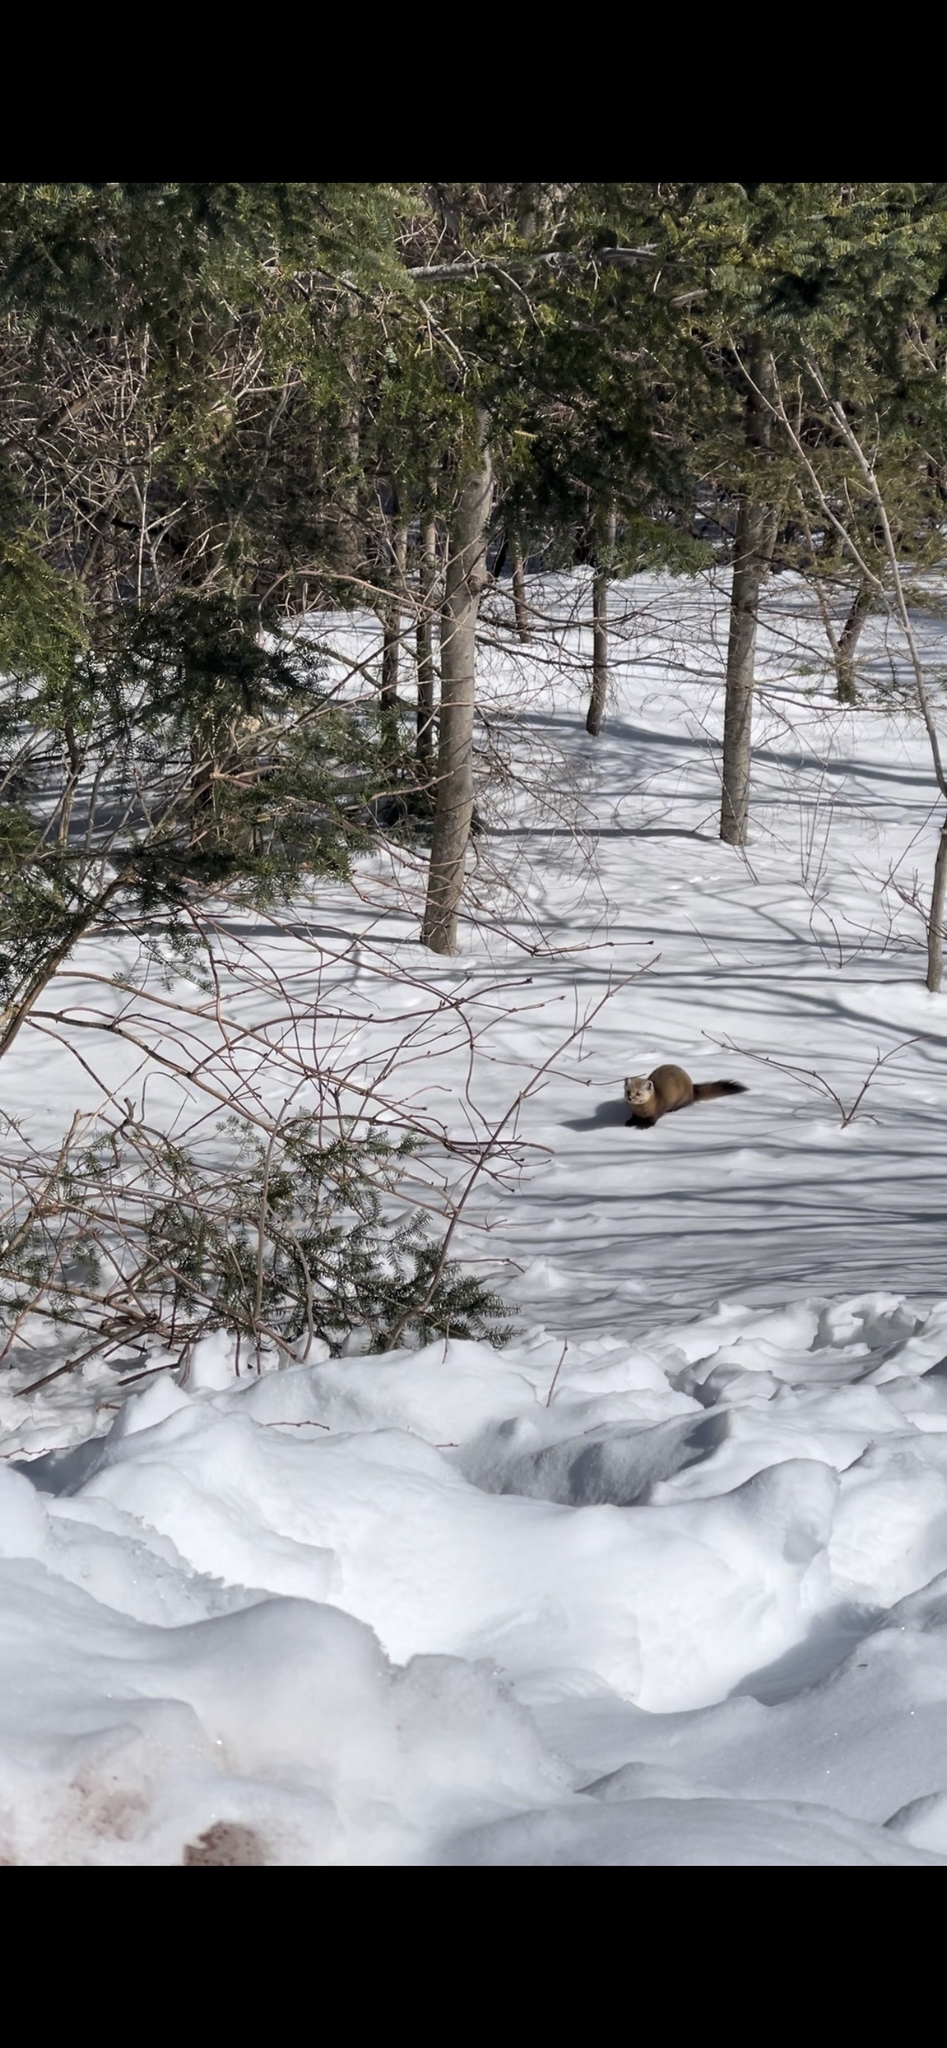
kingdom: Animalia
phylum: Chordata
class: Mammalia
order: Carnivora
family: Mustelidae
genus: Martes
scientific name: Martes americana
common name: American marten
